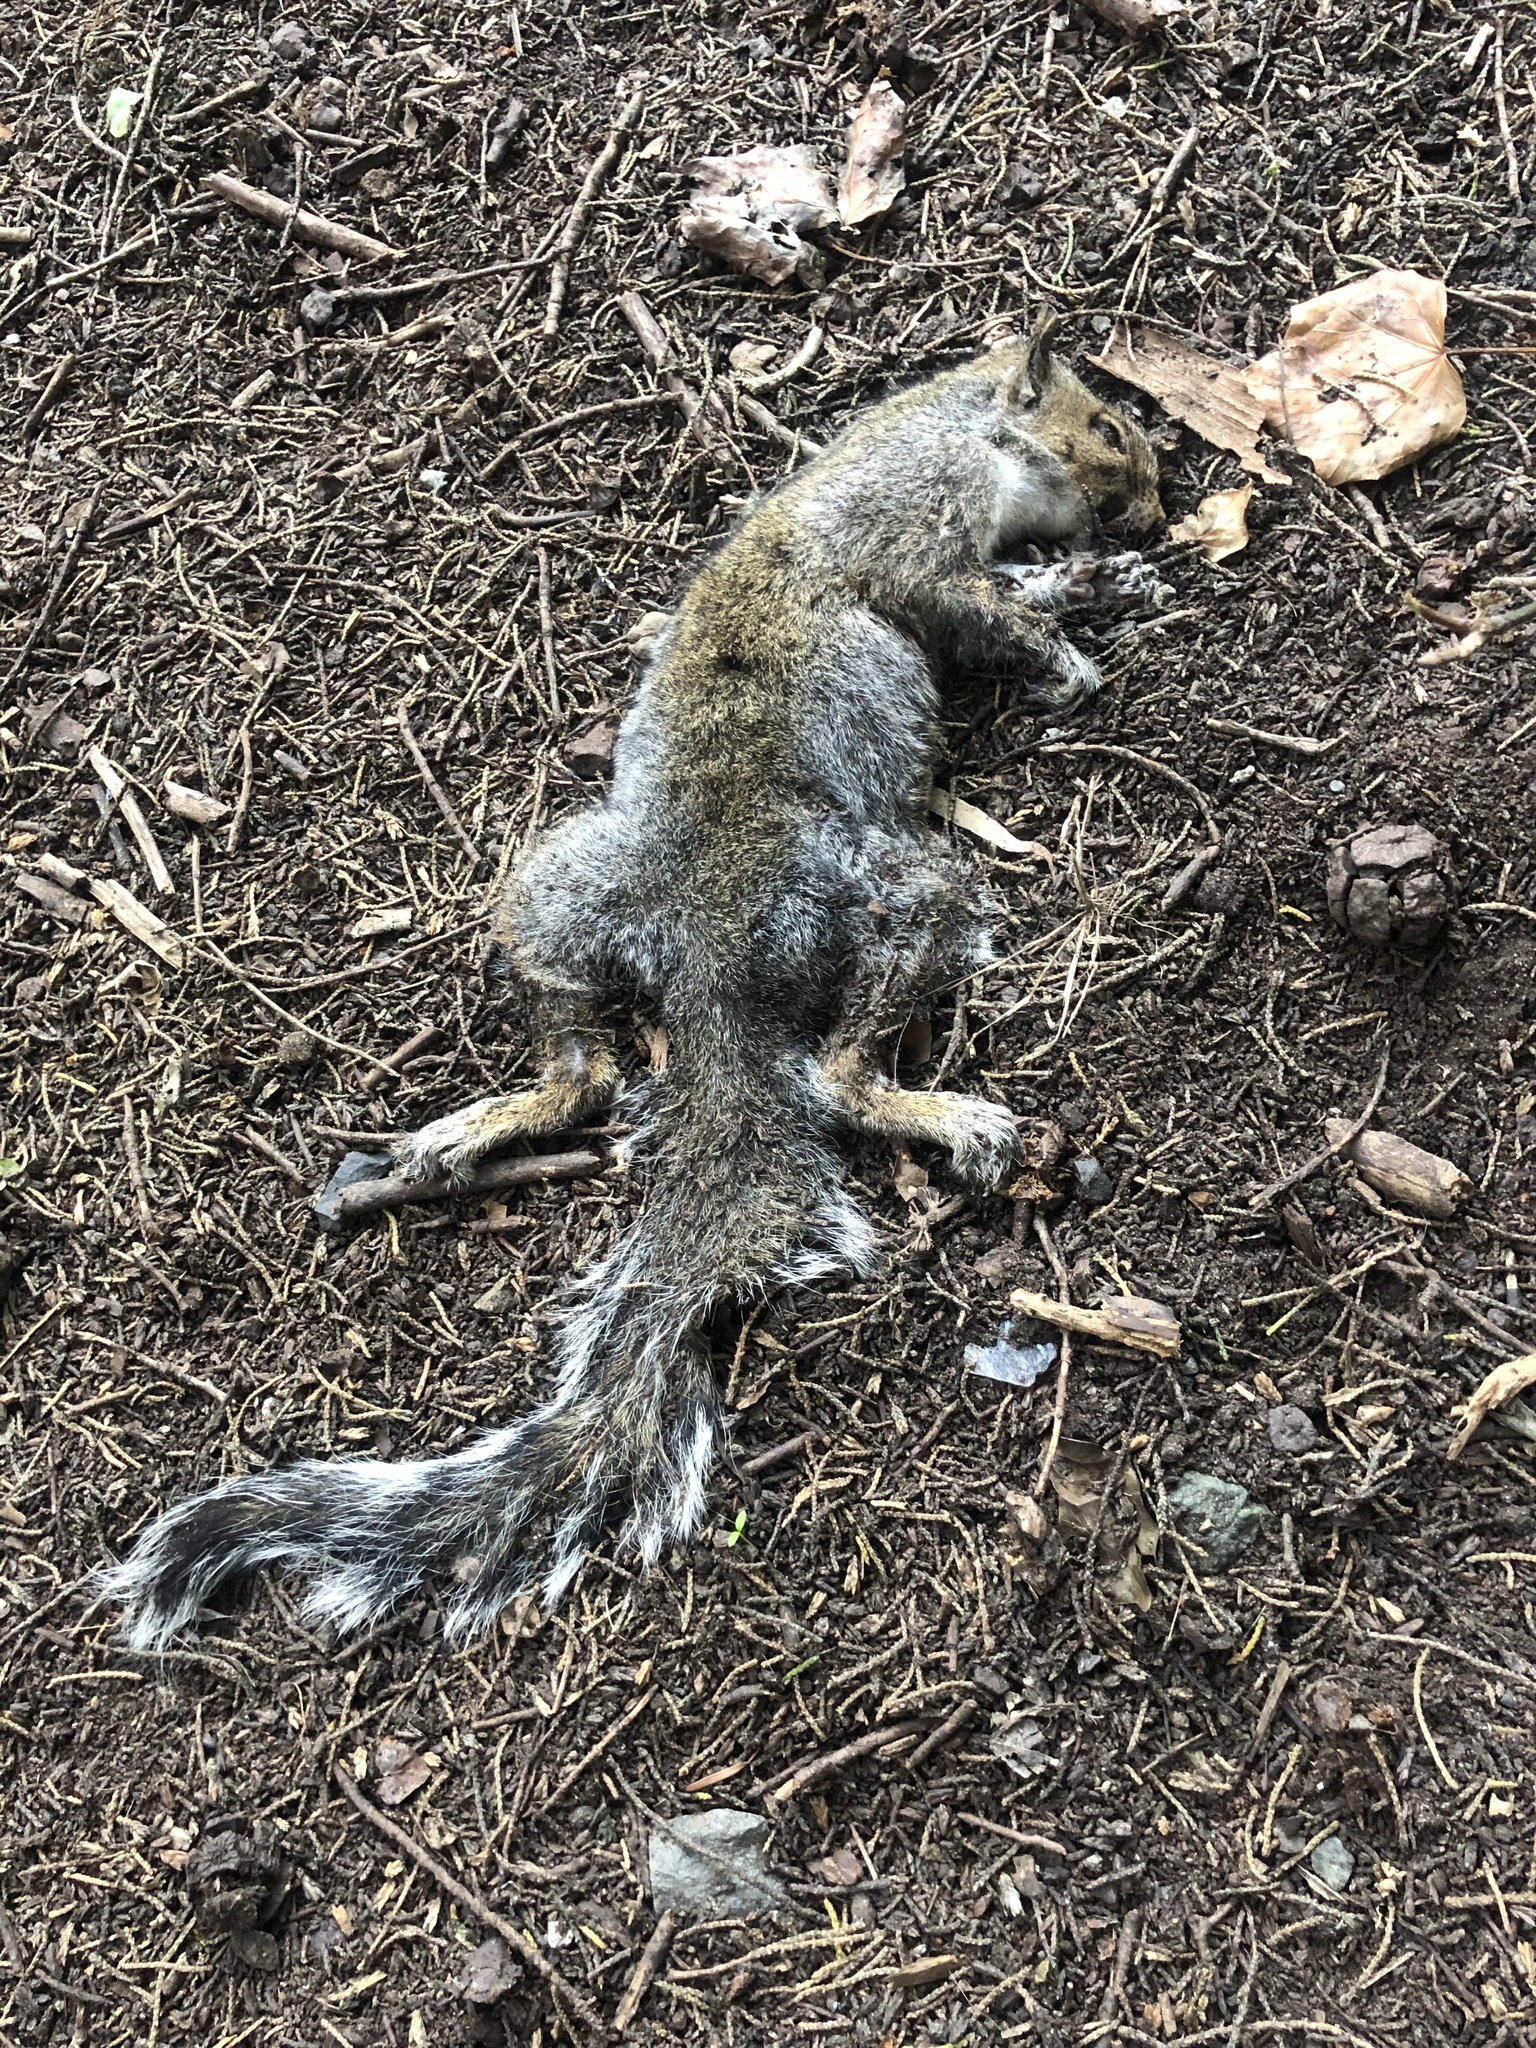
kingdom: Animalia
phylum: Chordata
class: Mammalia
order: Rodentia
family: Sciuridae
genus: Sciurus
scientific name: Sciurus carolinensis
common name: Eastern gray squirrel
